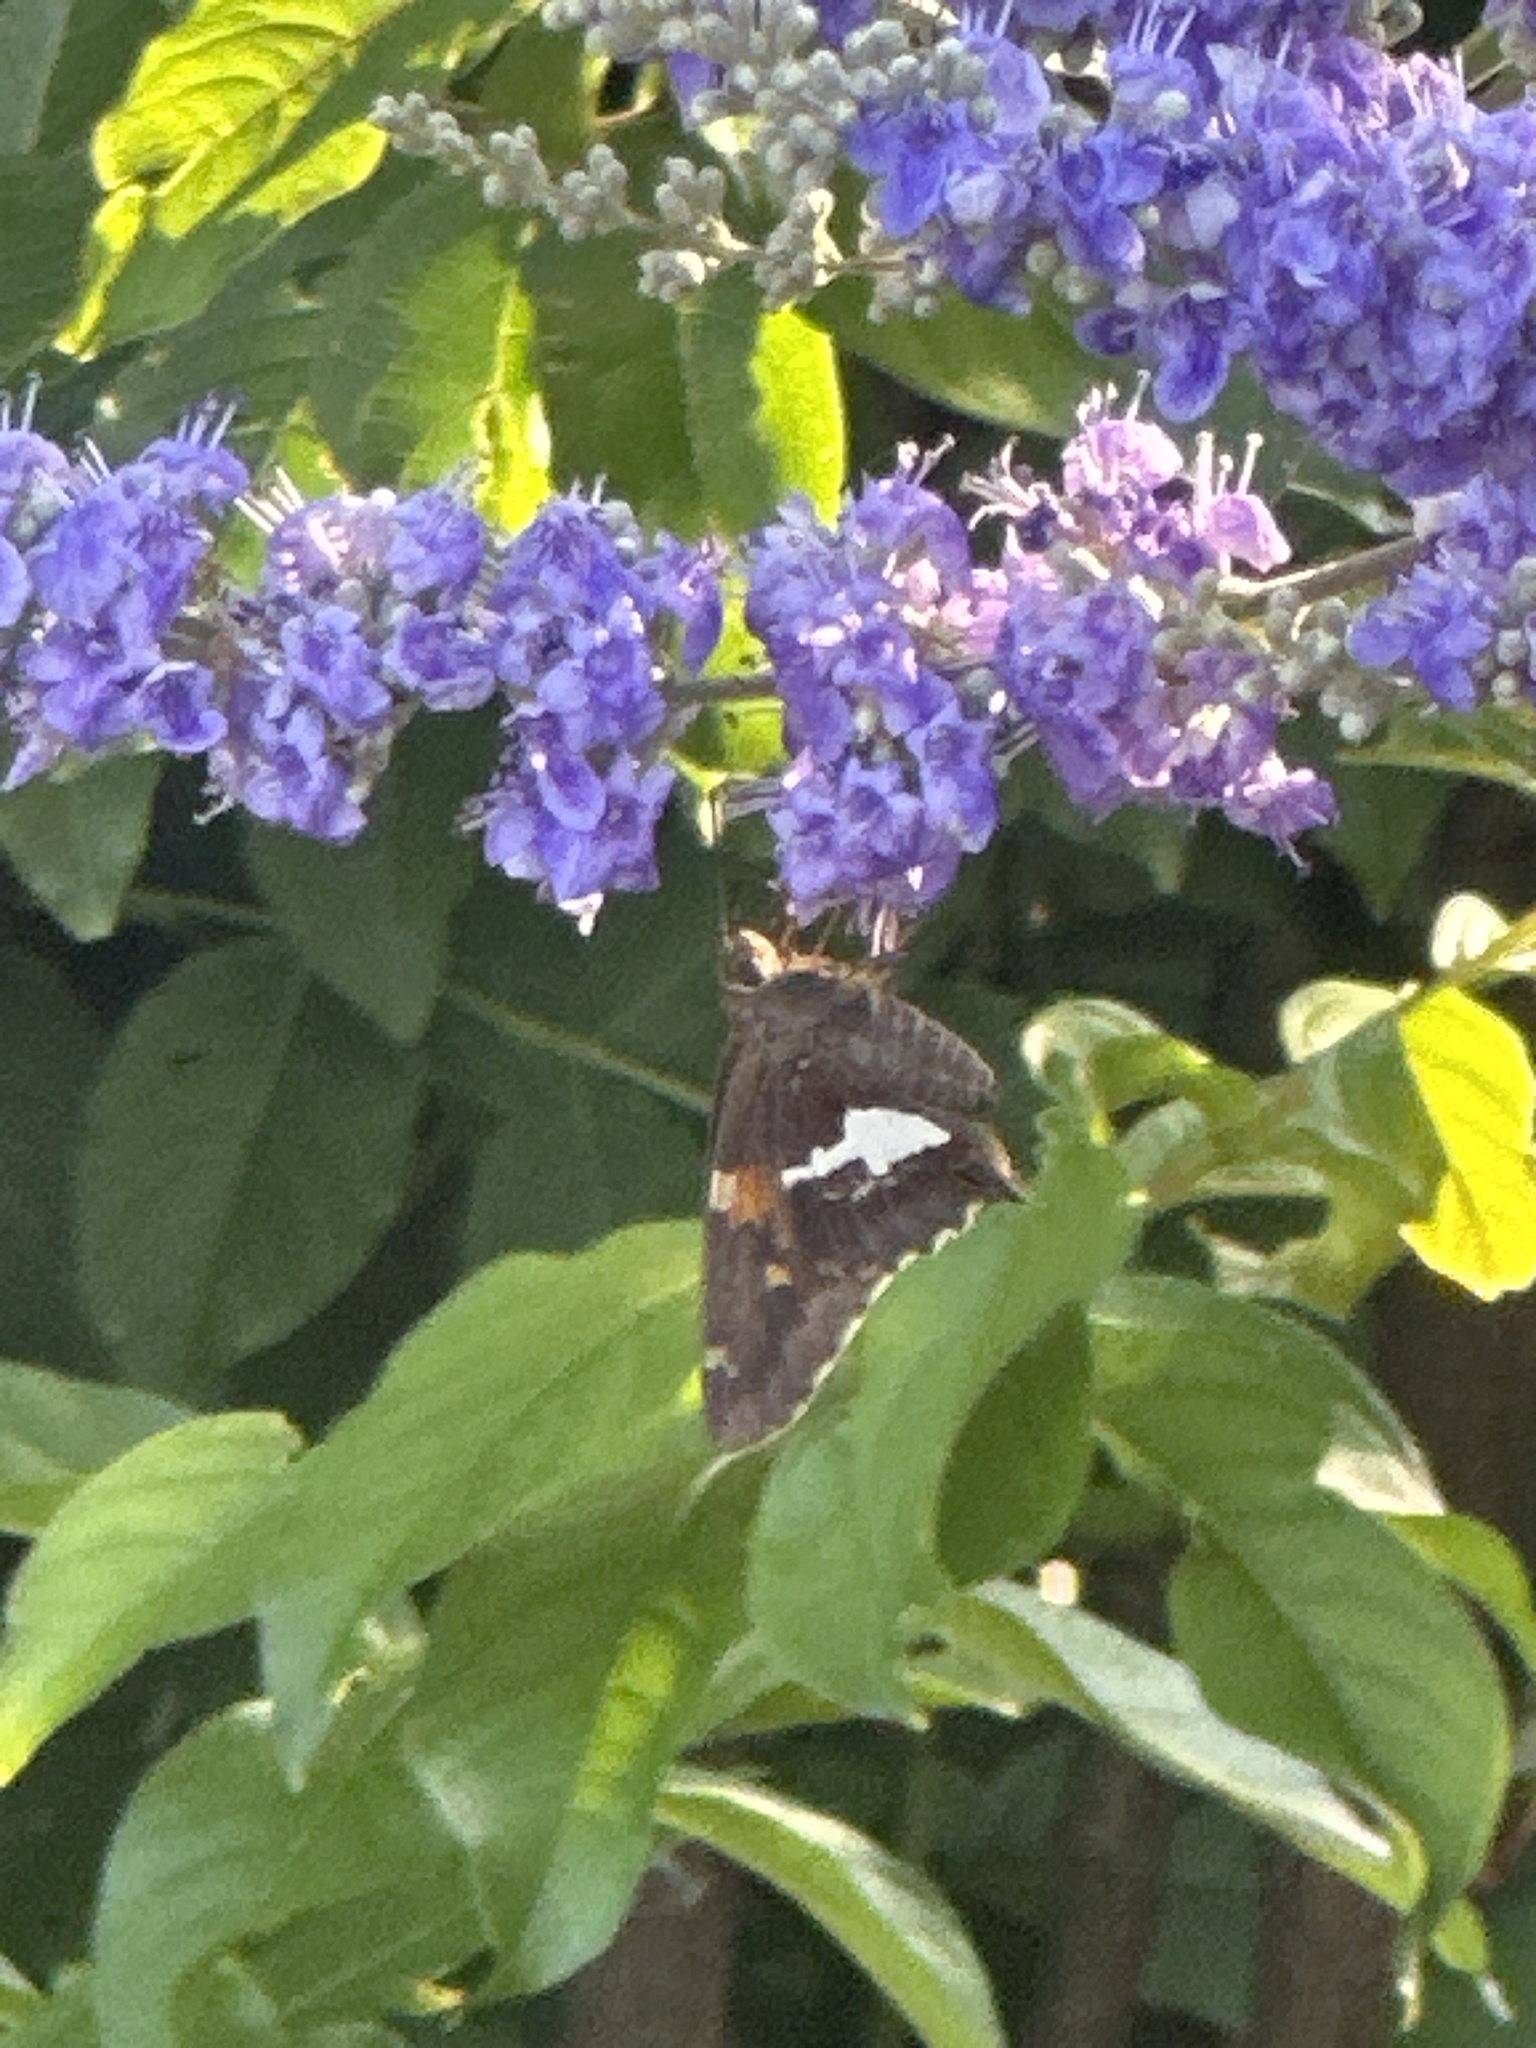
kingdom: Animalia
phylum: Arthropoda
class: Insecta
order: Lepidoptera
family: Hesperiidae
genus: Epargyreus
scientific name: Epargyreus clarus
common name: Silver-spotted skipper
